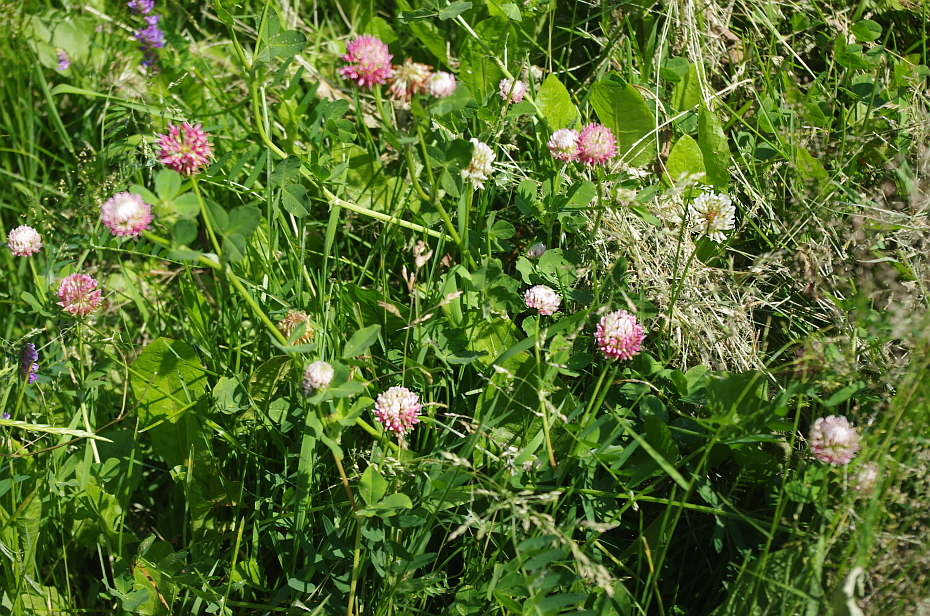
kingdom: Plantae
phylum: Tracheophyta
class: Magnoliopsida
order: Fabales
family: Fabaceae
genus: Trifolium
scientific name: Trifolium hybridum
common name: Alsike clover
